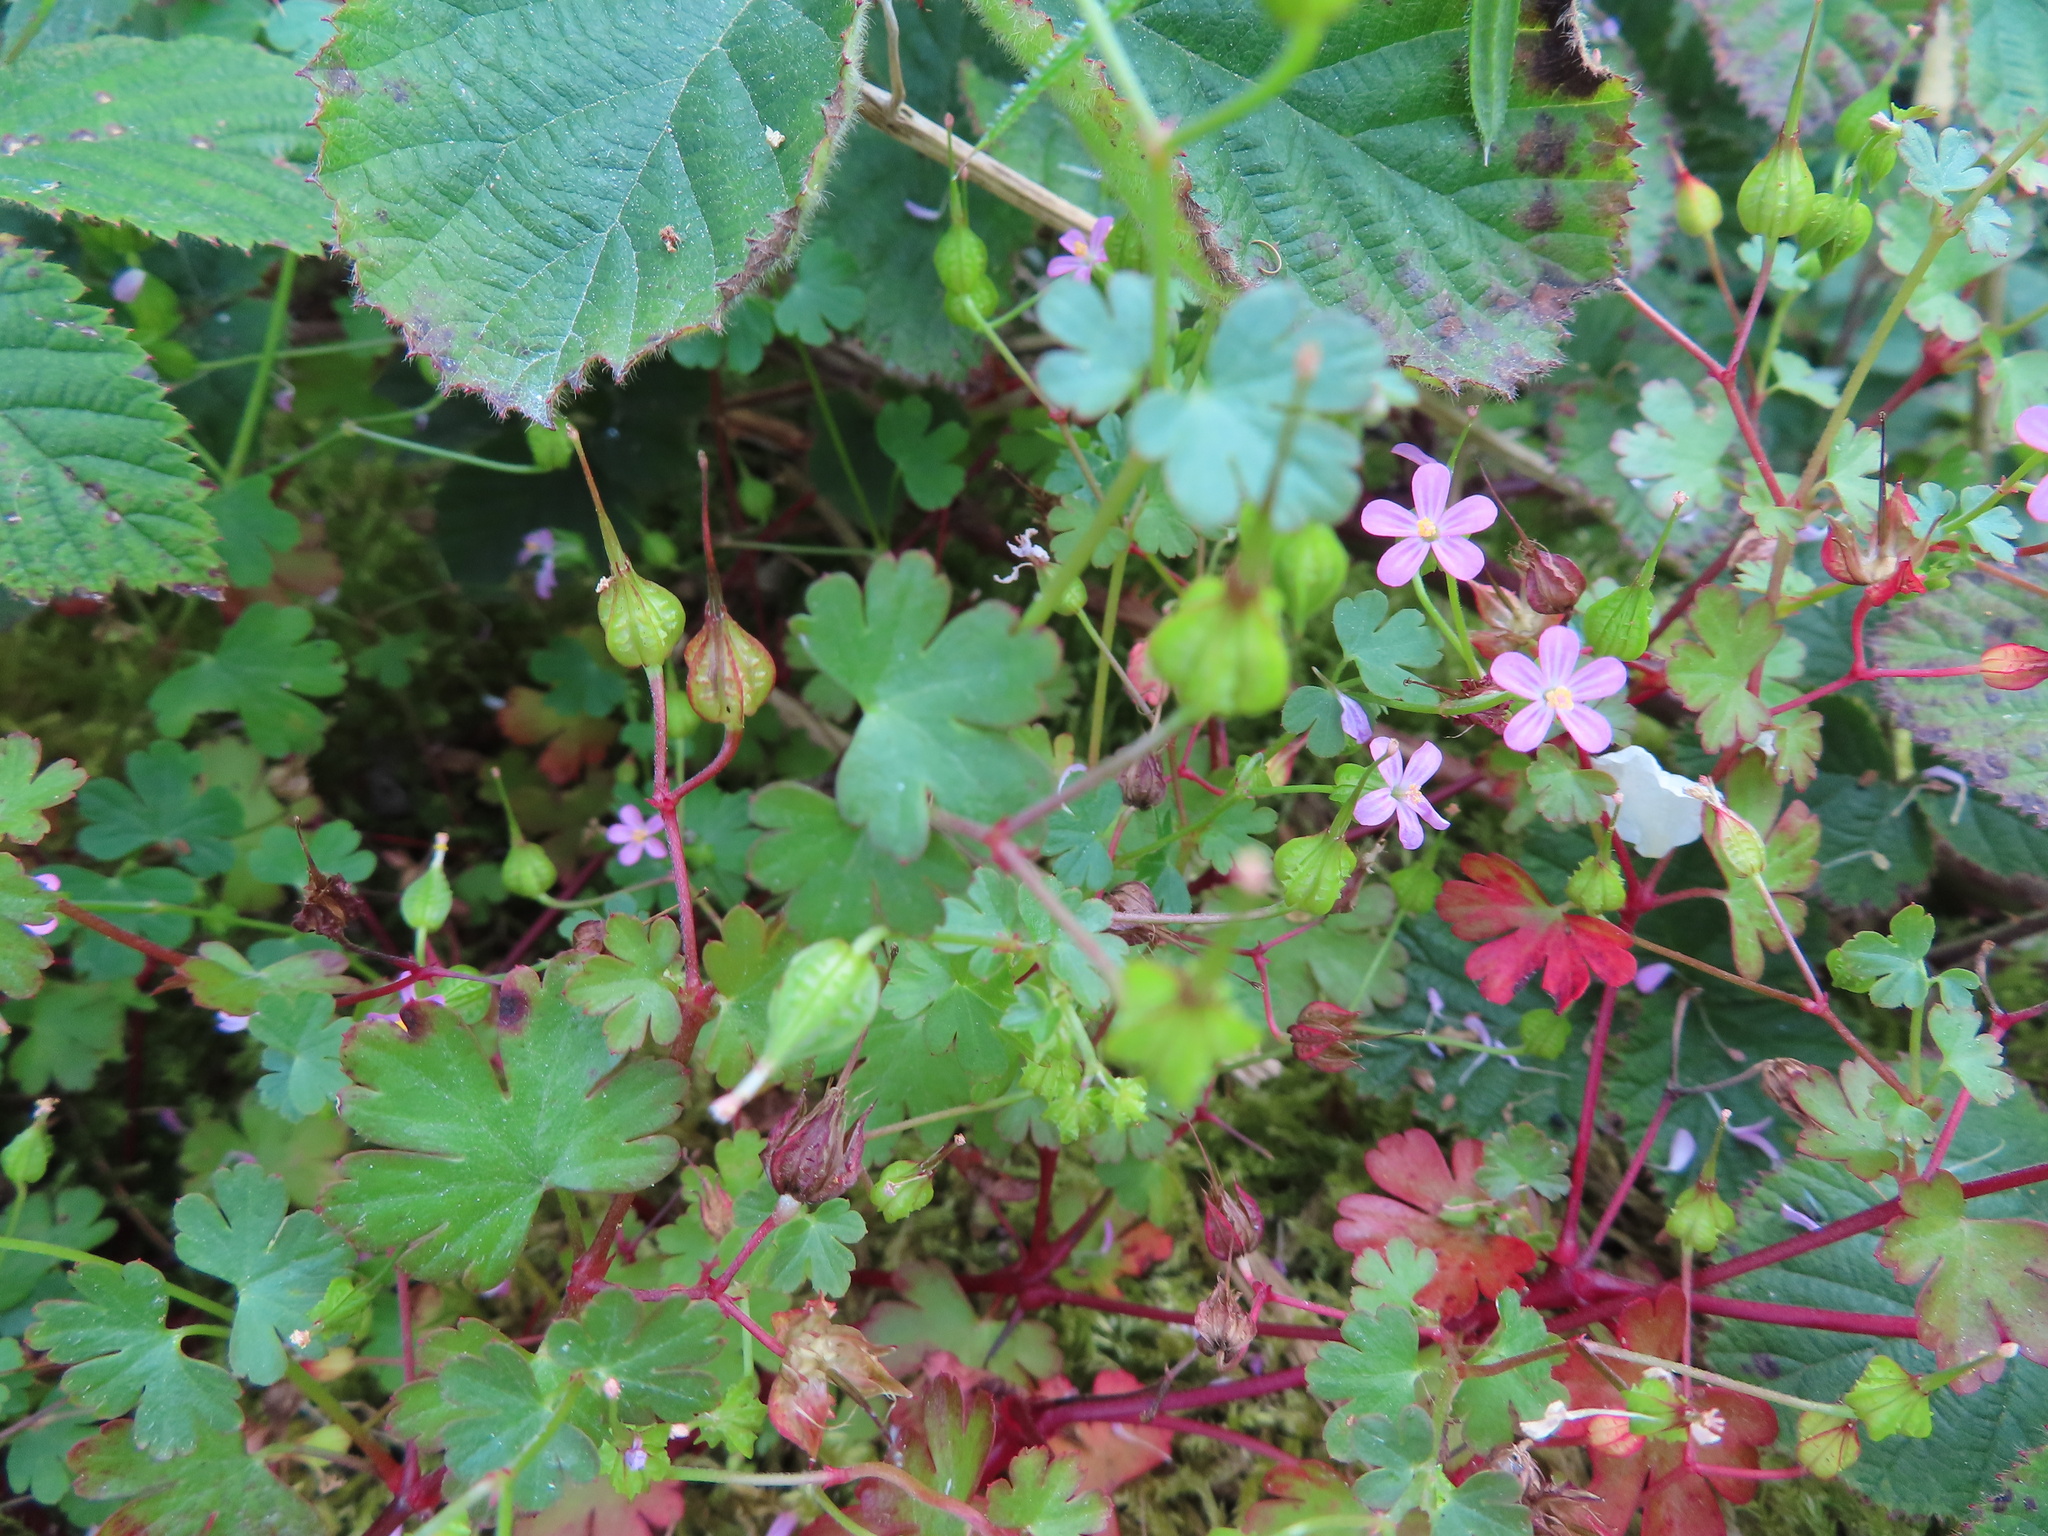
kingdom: Plantae
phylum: Tracheophyta
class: Magnoliopsida
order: Geraniales
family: Geraniaceae
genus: Geranium
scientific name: Geranium lucidum
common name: Shining crane's-bill
